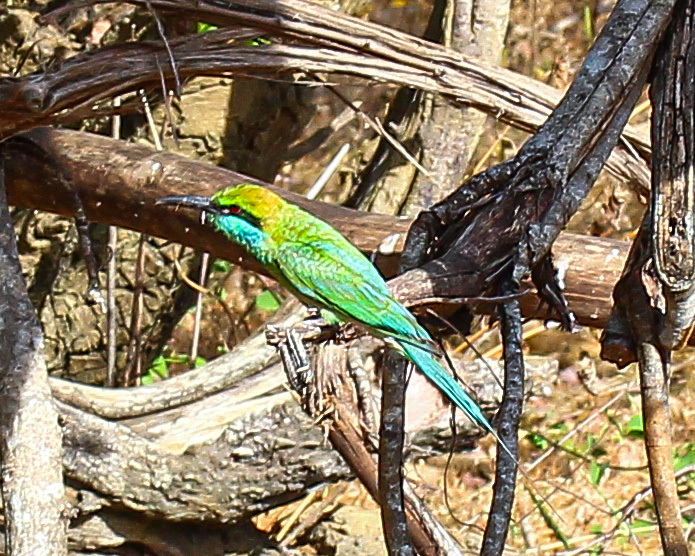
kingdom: Animalia
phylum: Chordata
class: Aves
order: Coraciiformes
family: Meropidae
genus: Merops
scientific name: Merops orientalis
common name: Green bee-eater
